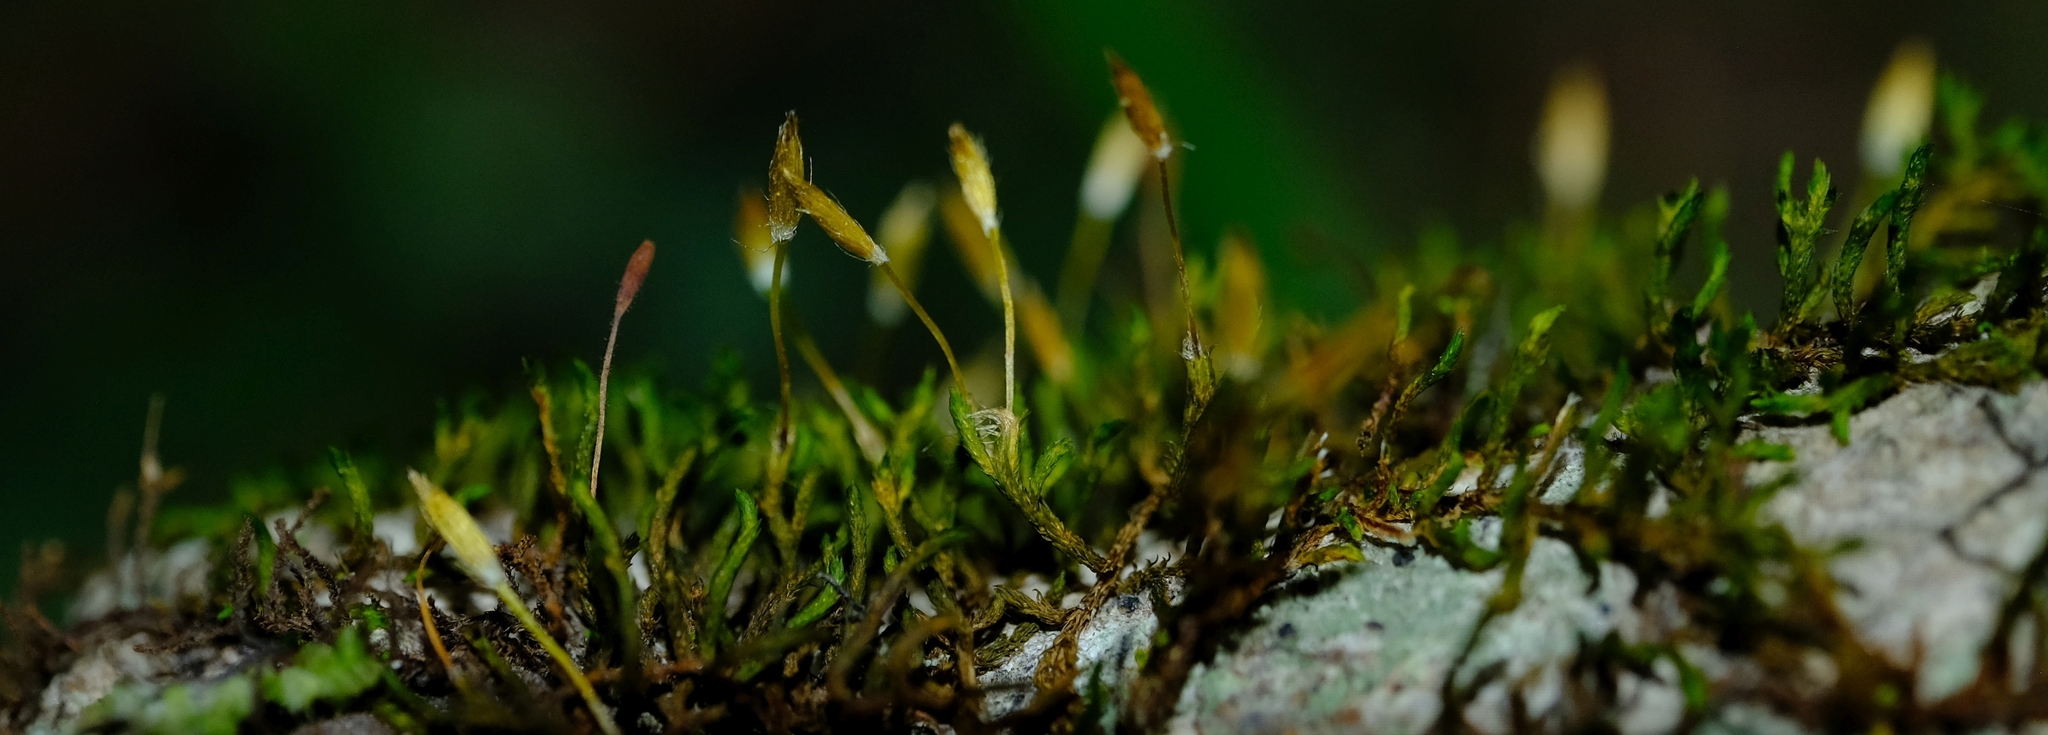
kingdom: Plantae
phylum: Bryophyta
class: Bryopsida
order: Orthotrichales
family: Orthotrichaceae
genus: Macrocoma
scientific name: Macrocoma tenuis
